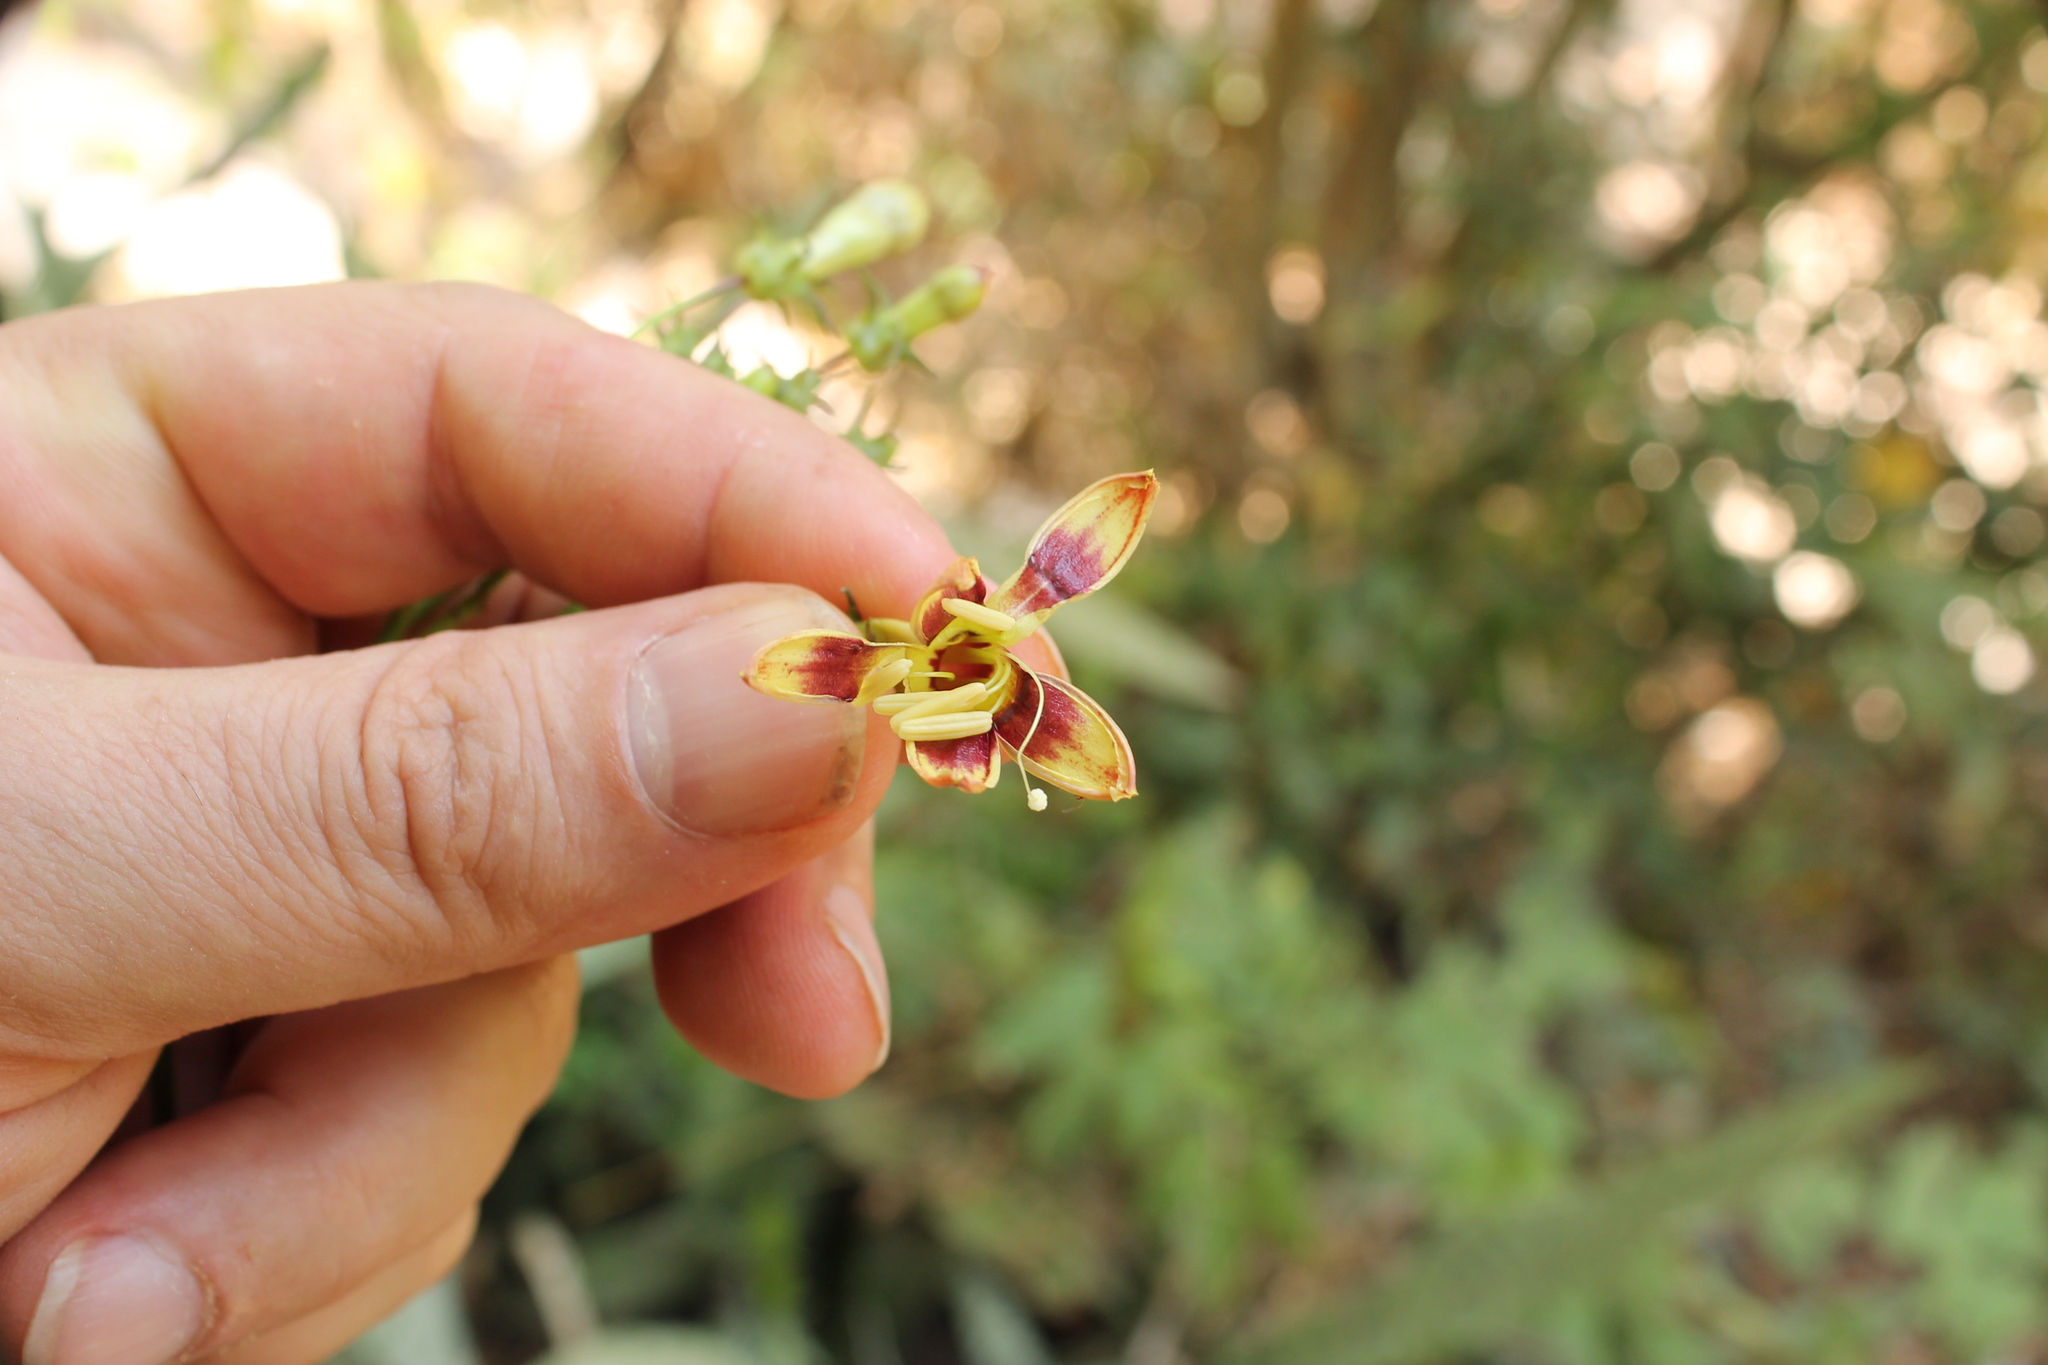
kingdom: Plantae
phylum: Tracheophyta
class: Magnoliopsida
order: Solanales
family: Convolvulaceae
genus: Ipomoea
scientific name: Ipomoea neei
